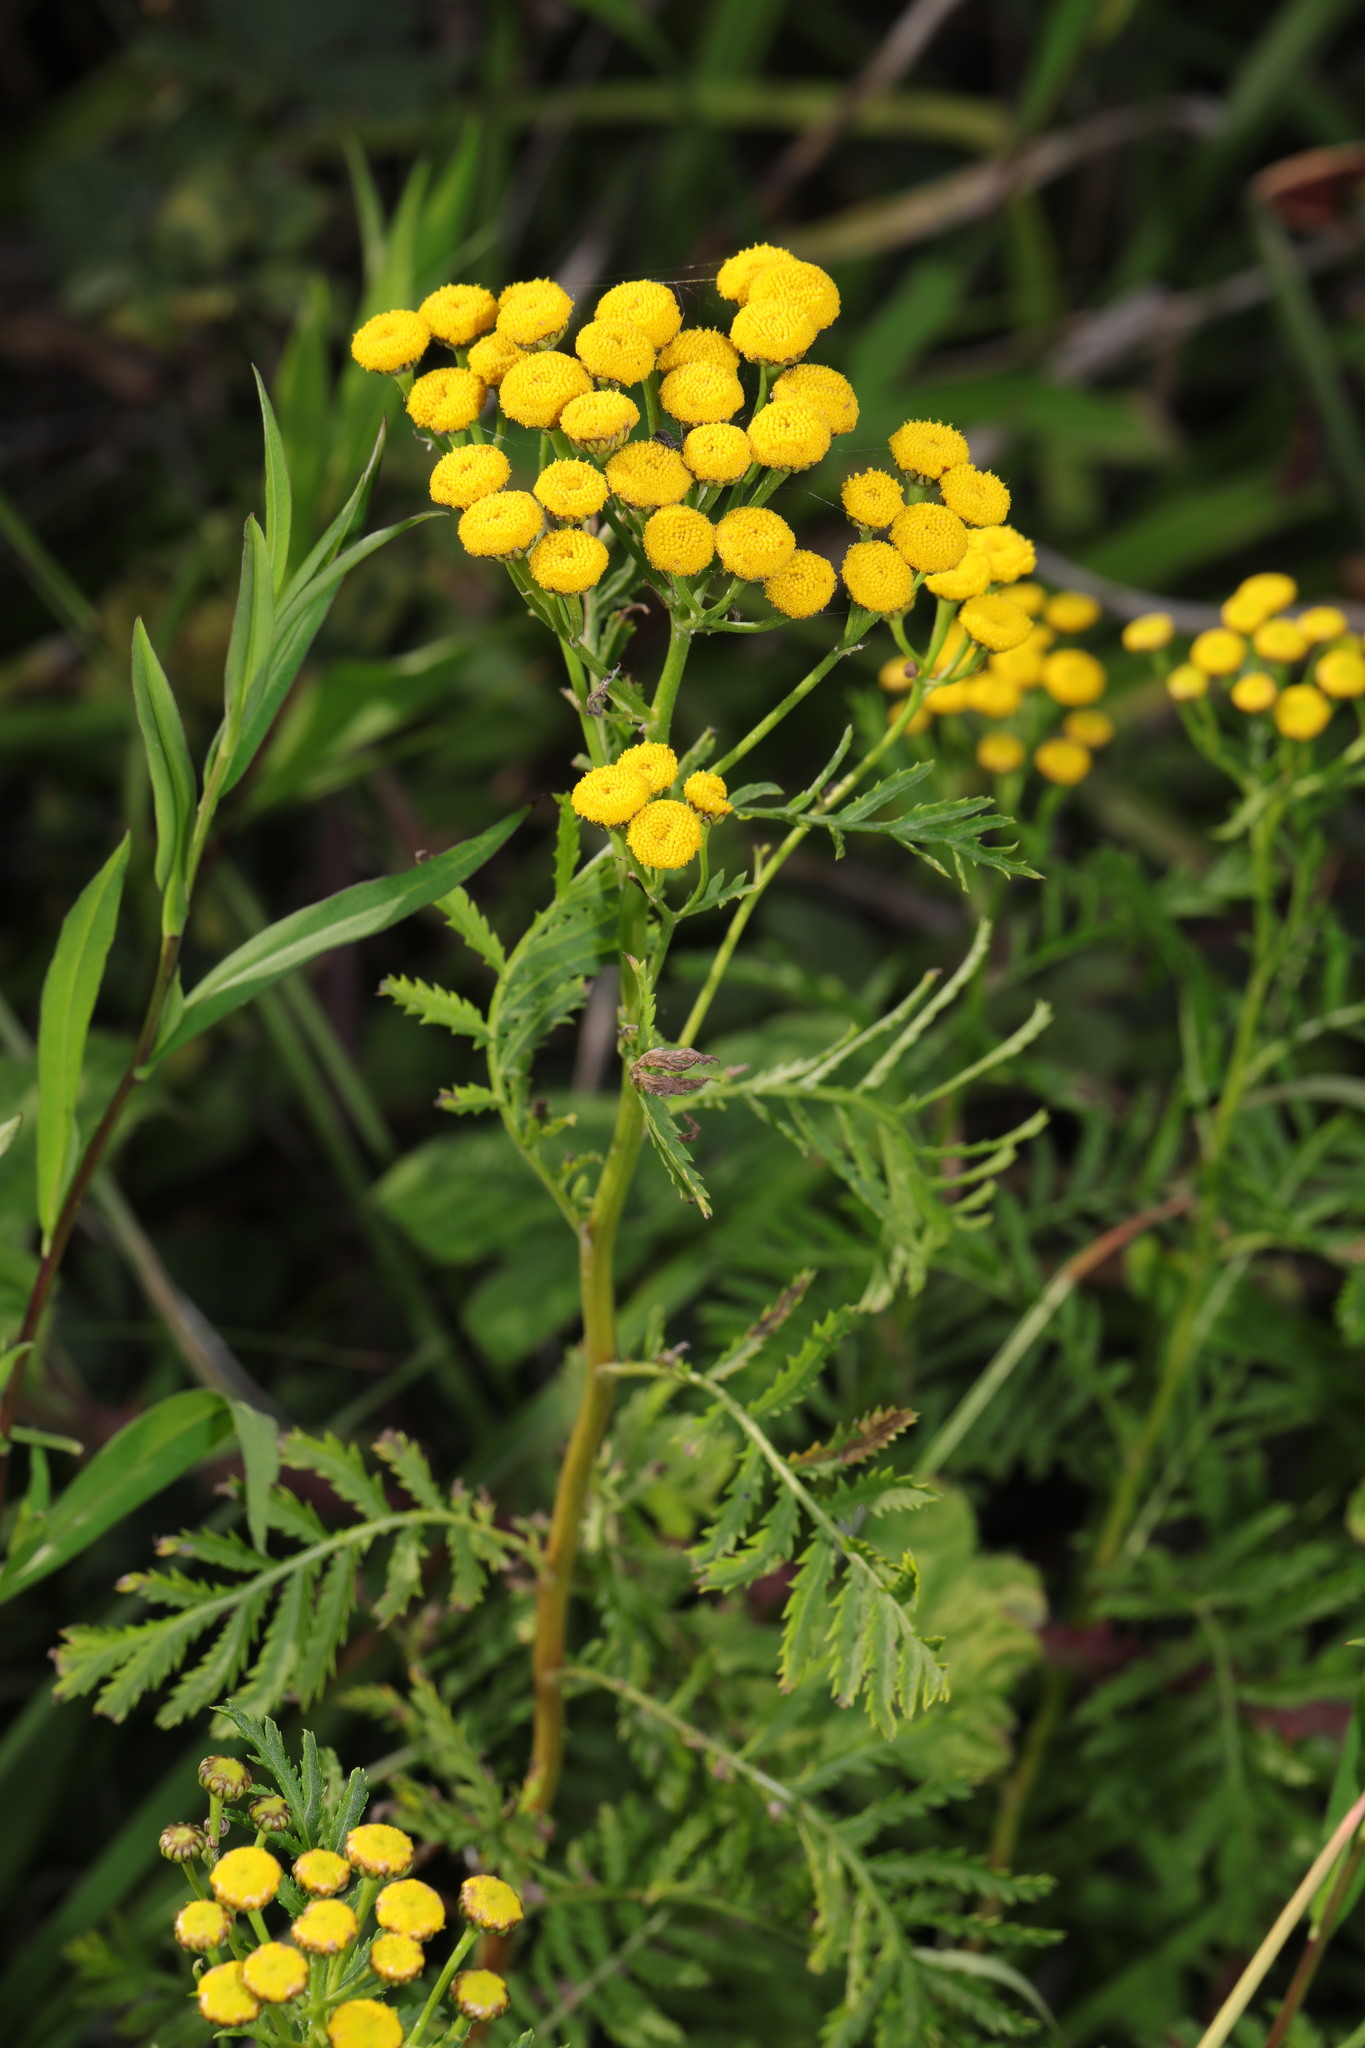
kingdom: Plantae
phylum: Tracheophyta
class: Magnoliopsida
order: Asterales
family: Asteraceae
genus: Tanacetum
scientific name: Tanacetum vulgare
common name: Common tansy
